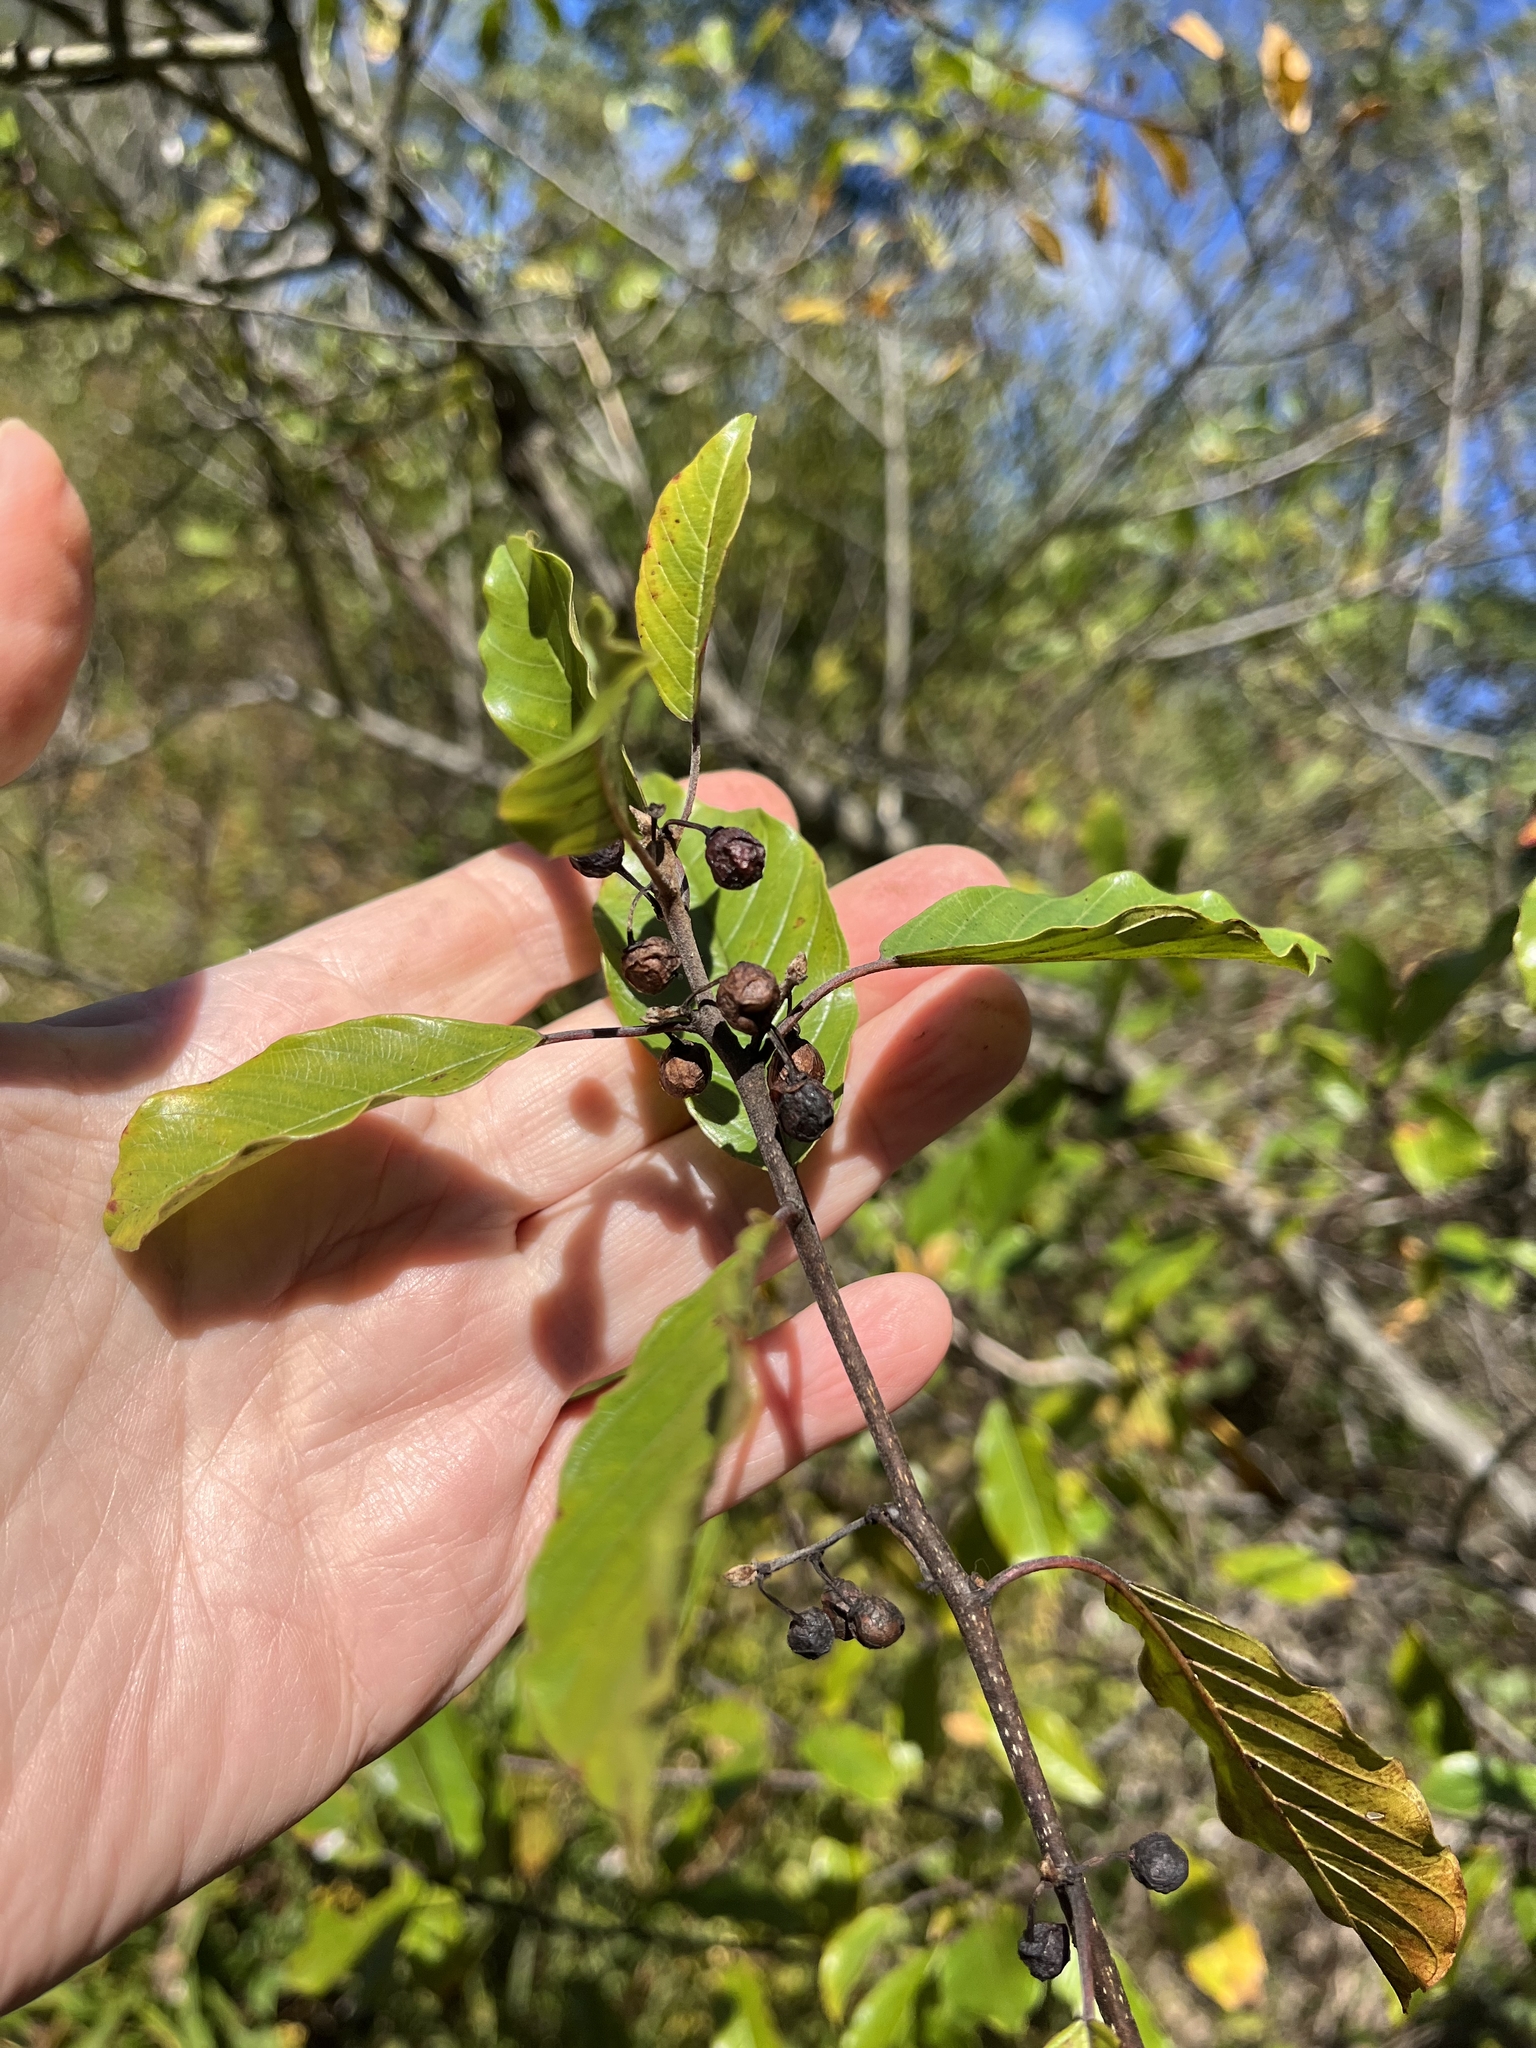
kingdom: Plantae
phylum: Tracheophyta
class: Magnoliopsida
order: Rosales
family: Rhamnaceae
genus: Frangula
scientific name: Frangula alnus
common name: Alder buckthorn
